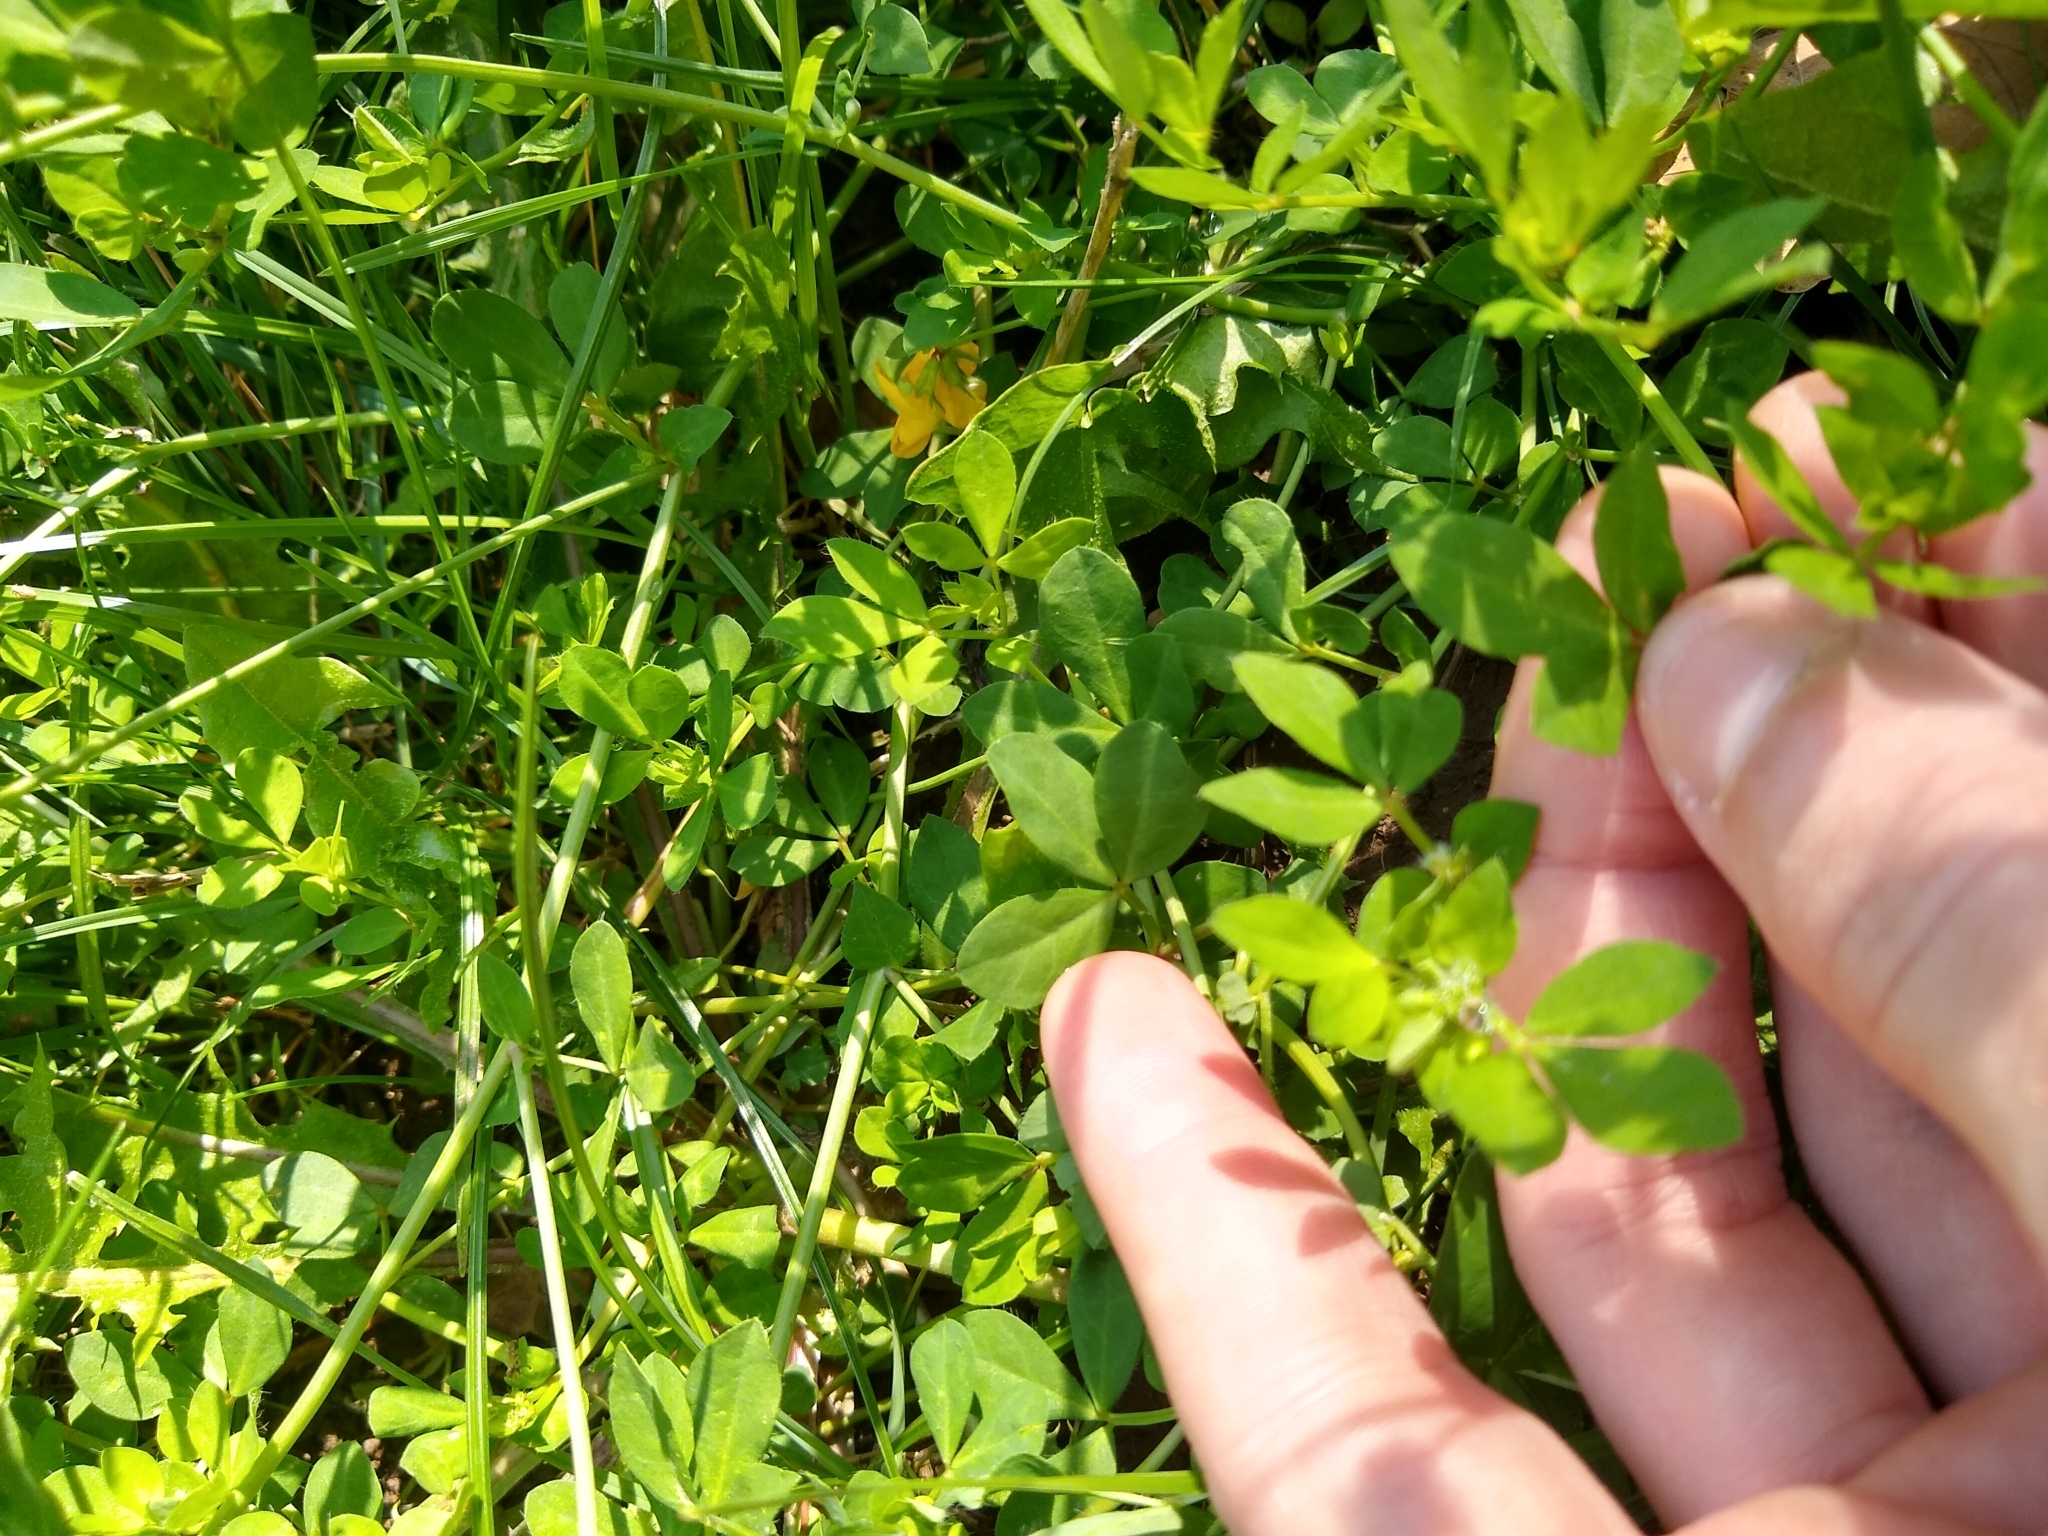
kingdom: Plantae
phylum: Tracheophyta
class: Magnoliopsida
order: Fabales
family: Fabaceae
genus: Lotus
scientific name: Lotus
